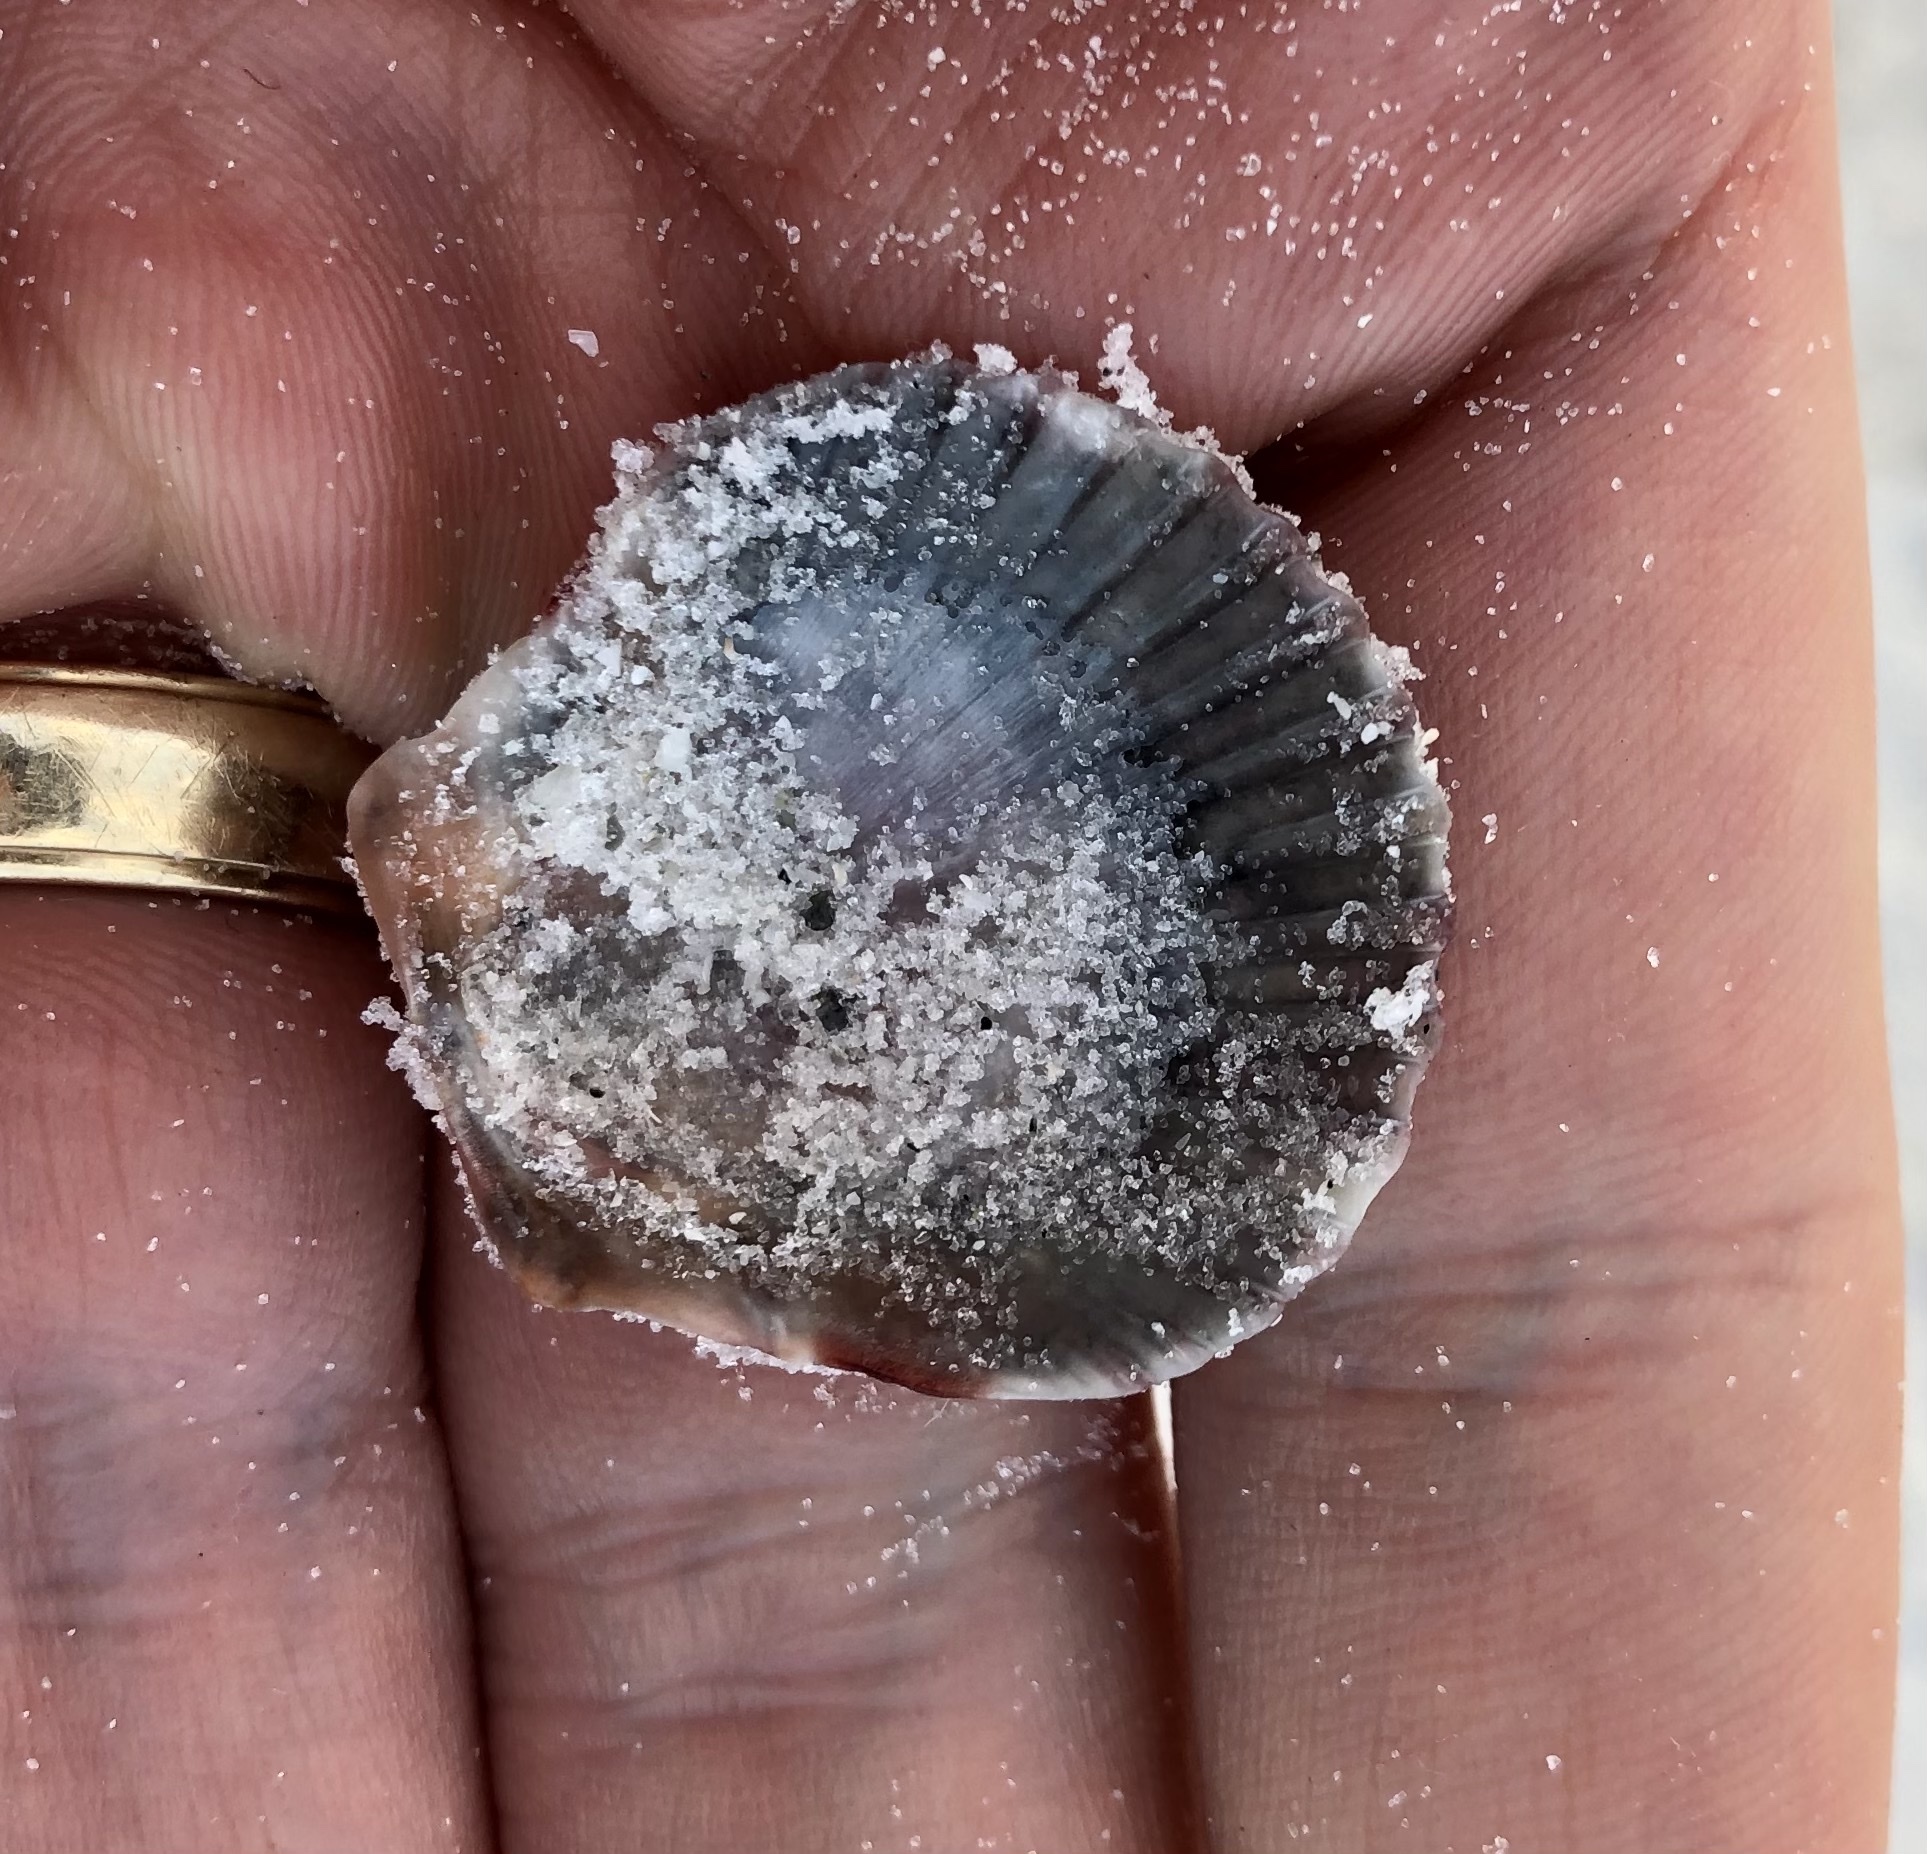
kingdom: Animalia
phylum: Mollusca
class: Bivalvia
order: Pectinida
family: Pectinidae
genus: Argopecten
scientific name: Argopecten gibbus
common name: Atlantic calico scallop
